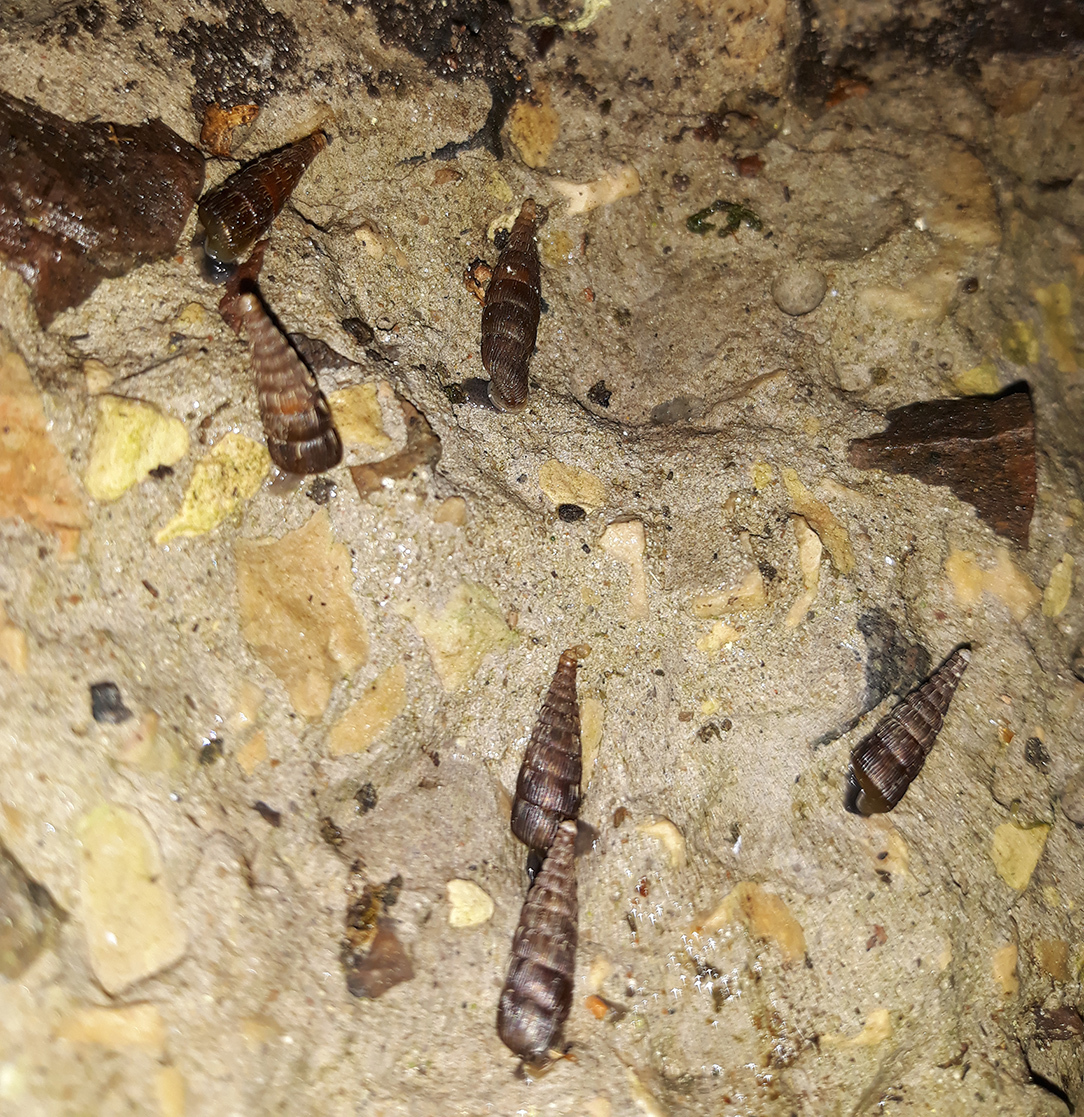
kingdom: Animalia
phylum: Mollusca
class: Gastropoda
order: Stylommatophora
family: Clausiliidae
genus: Laciniaria
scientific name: Laciniaria plicata
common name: Single-lipped door snail
